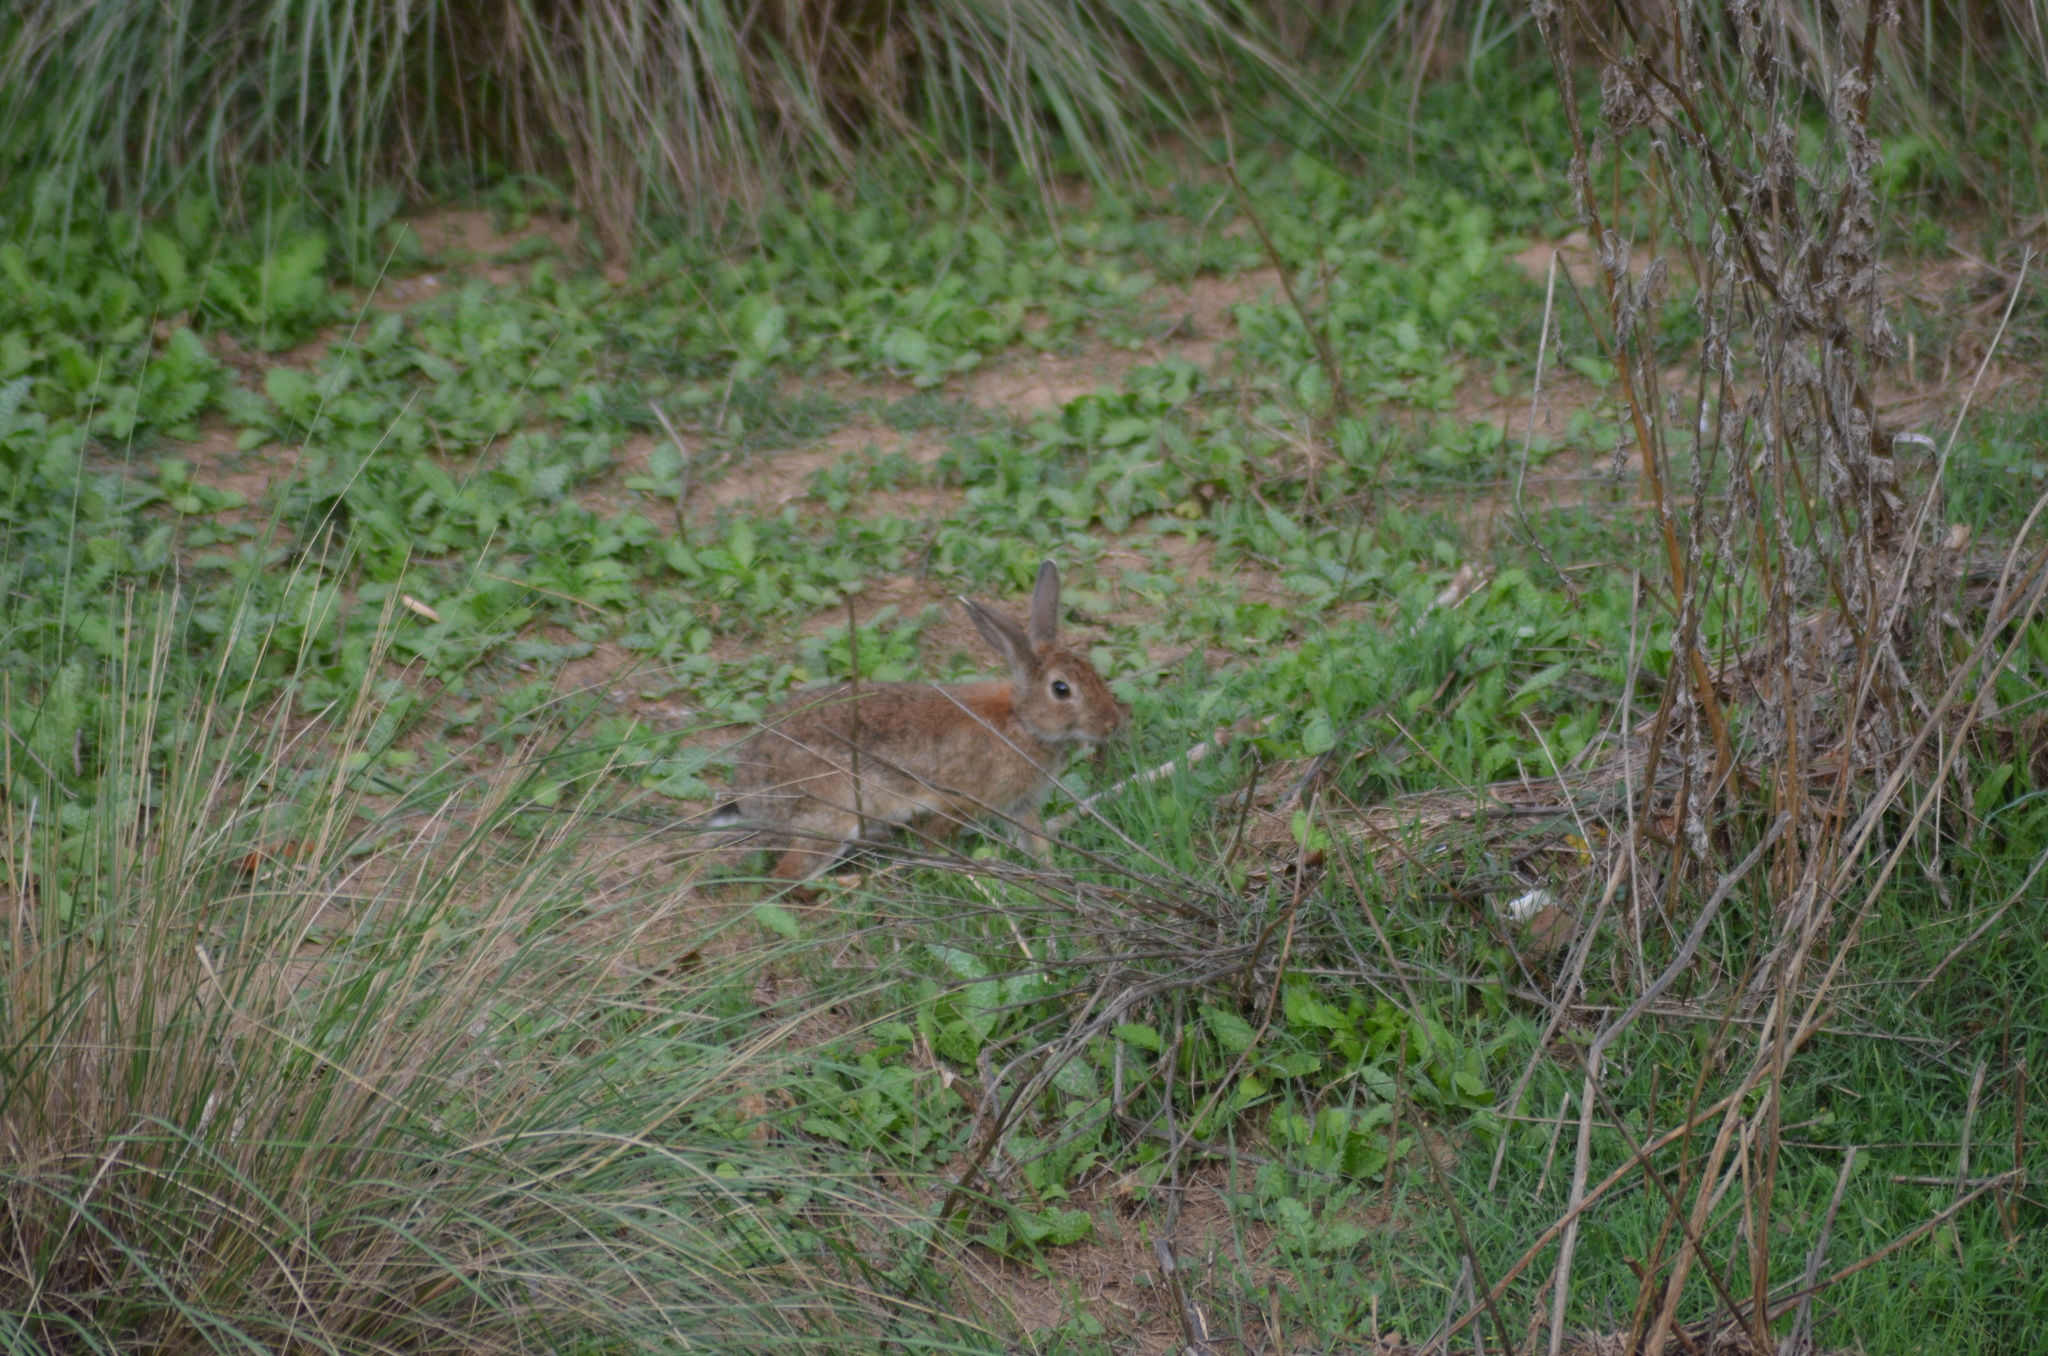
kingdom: Animalia
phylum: Chordata
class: Mammalia
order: Lagomorpha
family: Leporidae
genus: Oryctolagus
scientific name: Oryctolagus cuniculus
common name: European rabbit
